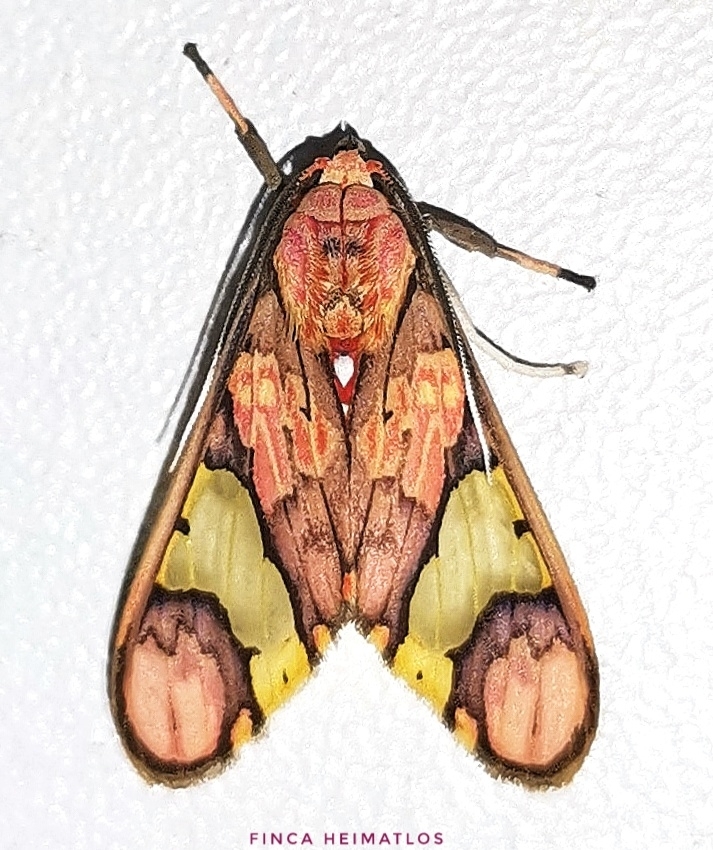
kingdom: Animalia
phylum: Arthropoda
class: Insecta
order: Lepidoptera
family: Erebidae
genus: Neonerita
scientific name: Neonerita dorsipuncta
